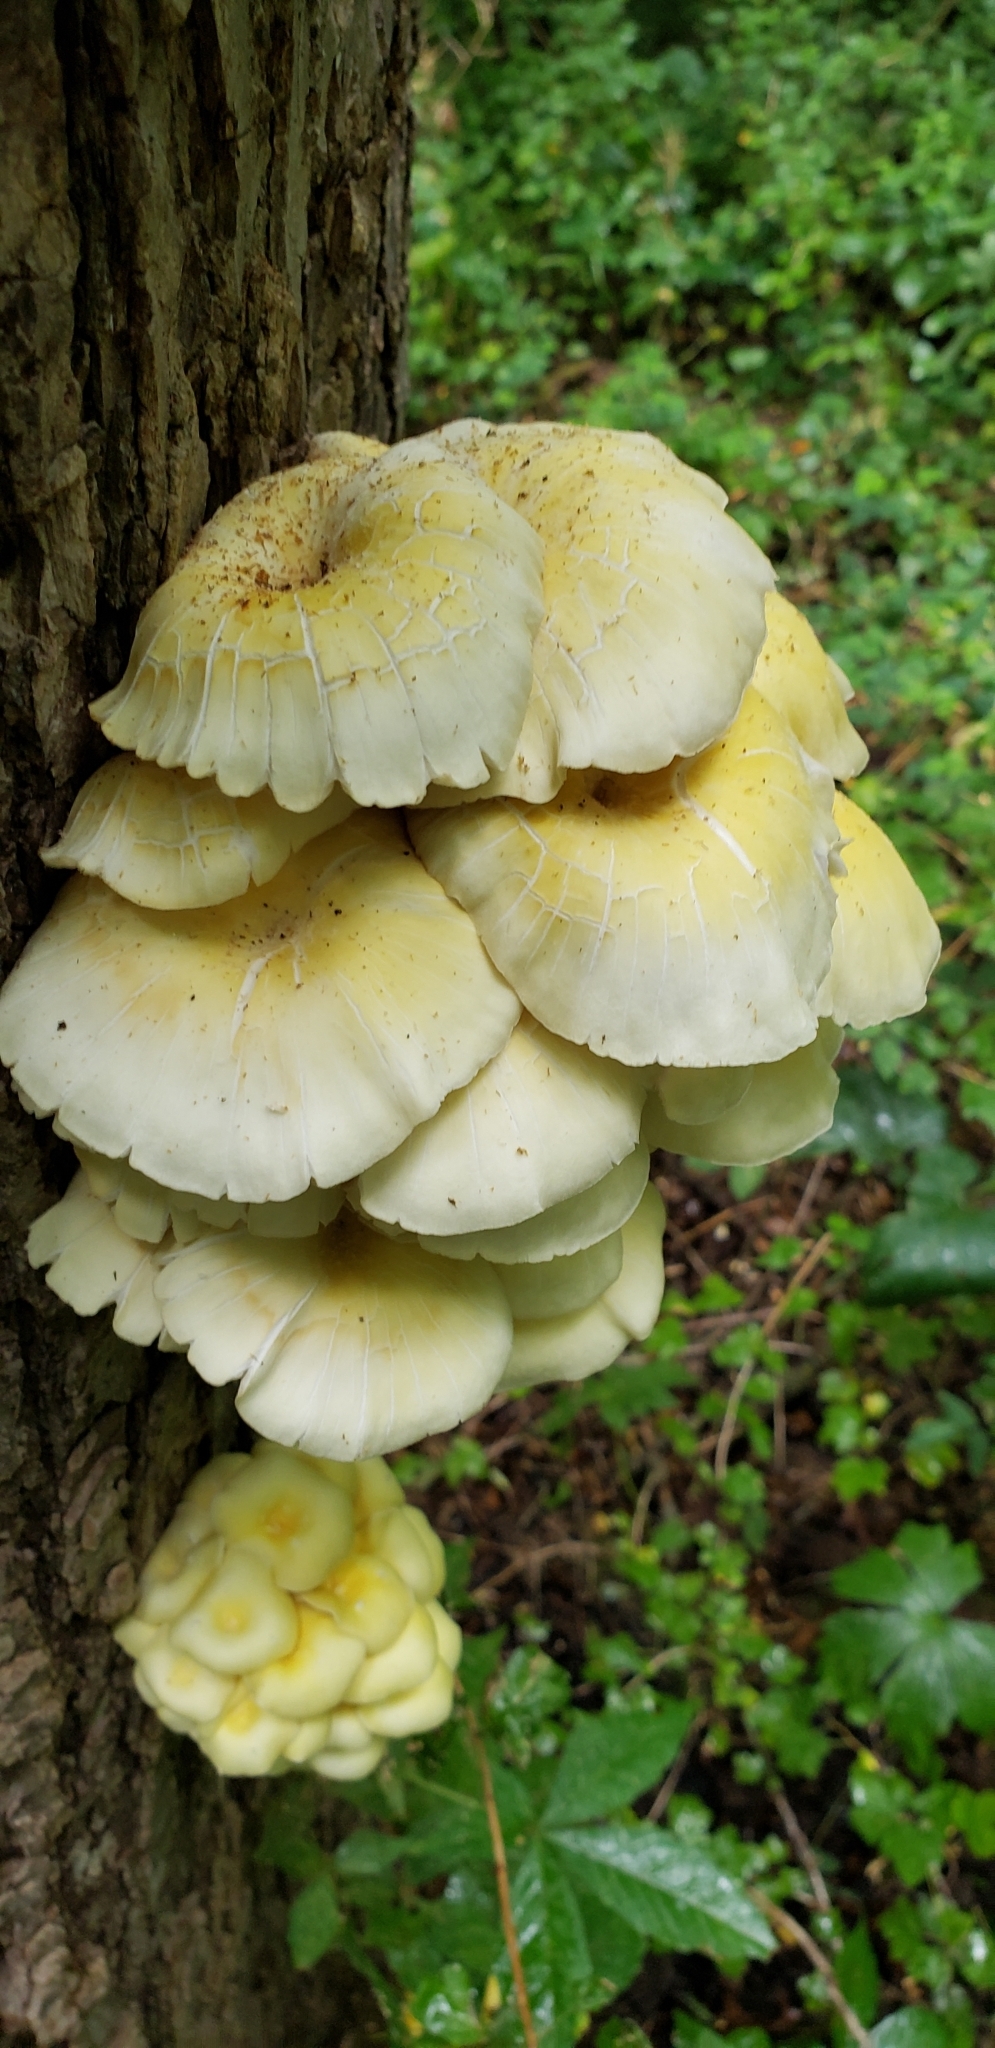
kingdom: Fungi
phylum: Basidiomycota
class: Agaricomycetes
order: Agaricales
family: Pleurotaceae
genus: Pleurotus
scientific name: Pleurotus citrinopileatus
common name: Golden oyster mushroom
